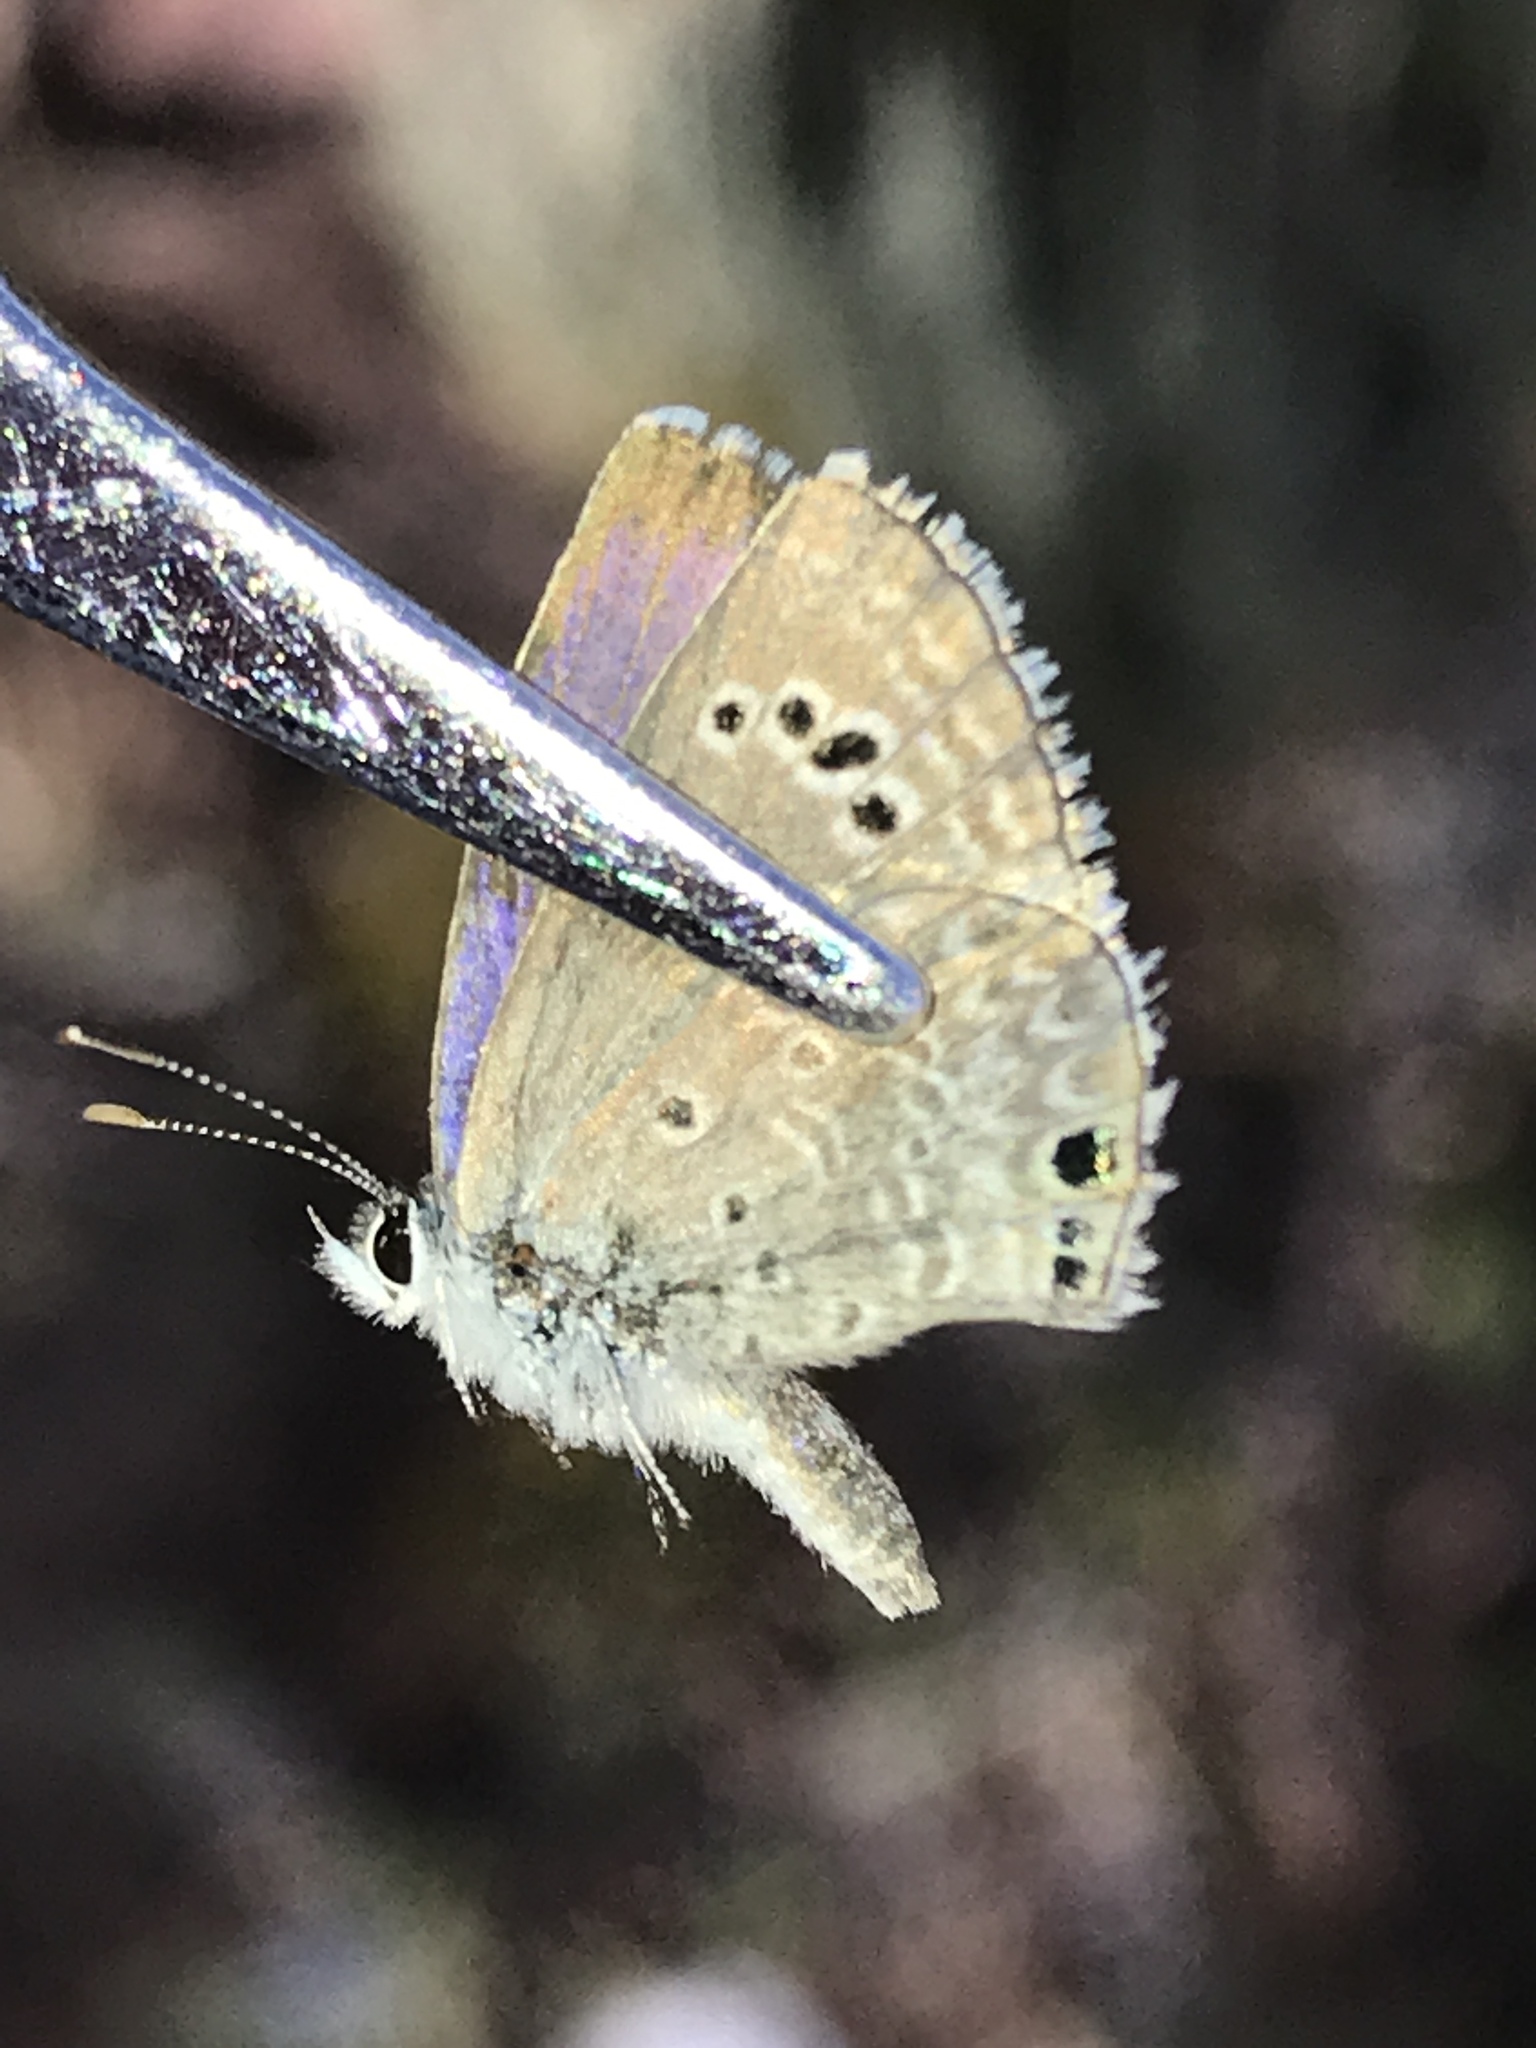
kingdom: Animalia
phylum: Arthropoda
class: Insecta
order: Lepidoptera
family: Lycaenidae
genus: Echinargus
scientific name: Echinargus isola
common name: Reakirt's blue
